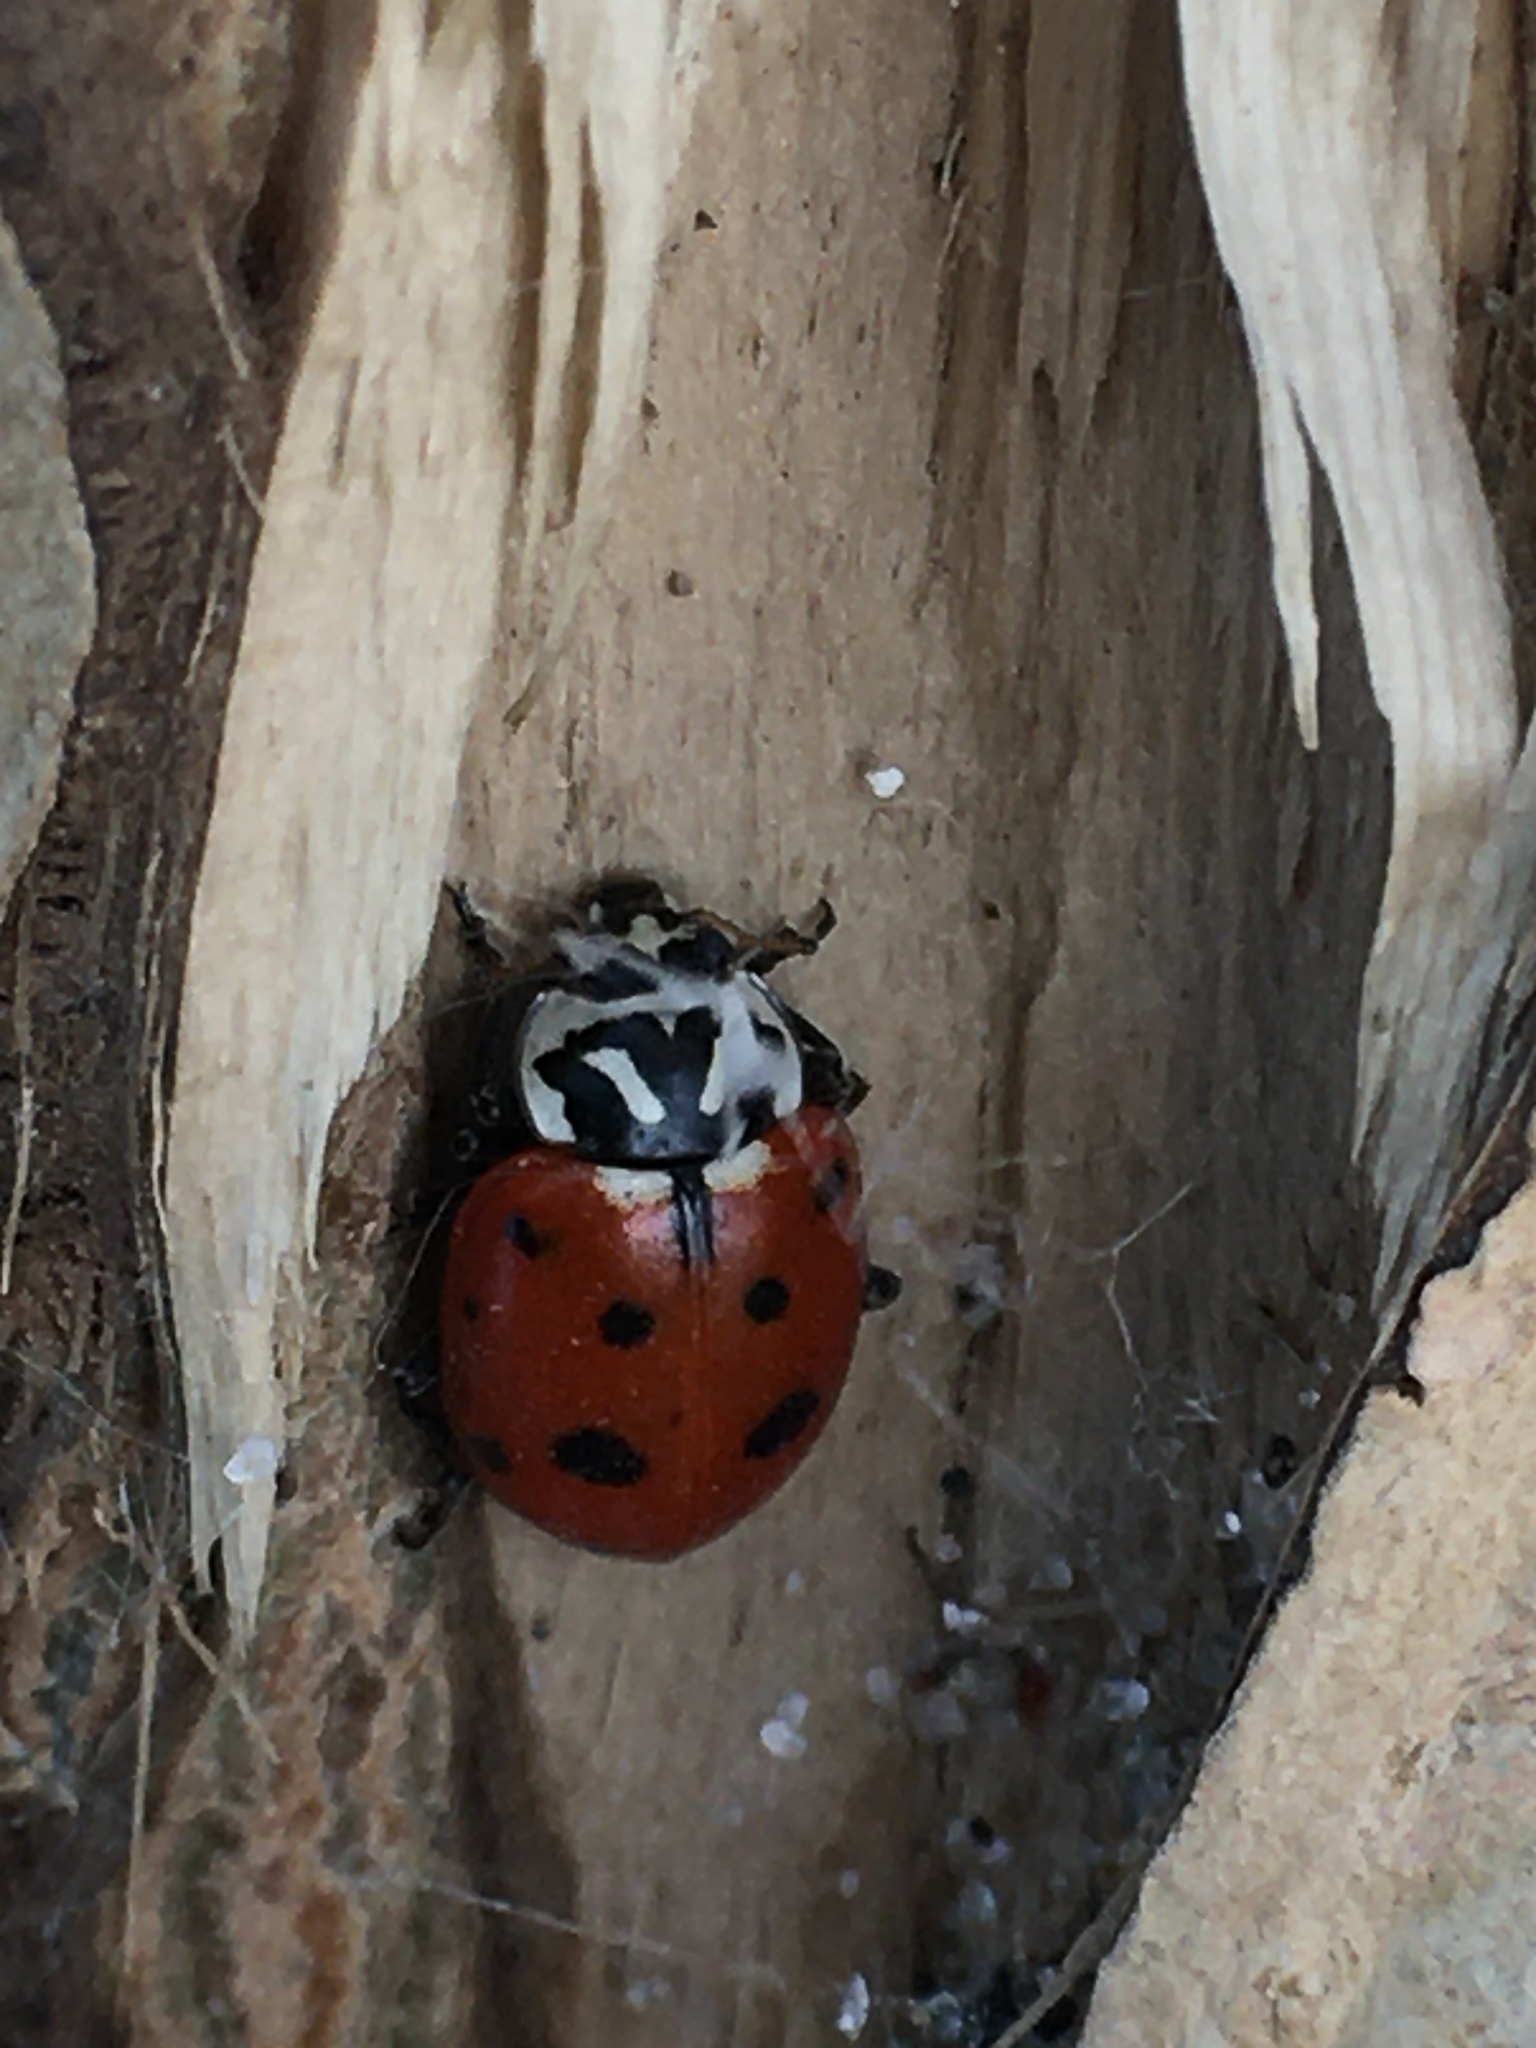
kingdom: Animalia
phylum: Arthropoda
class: Insecta
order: Coleoptera
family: Coccinellidae
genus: Hippodamia
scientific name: Hippodamia convergens
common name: Convergent lady beetle
